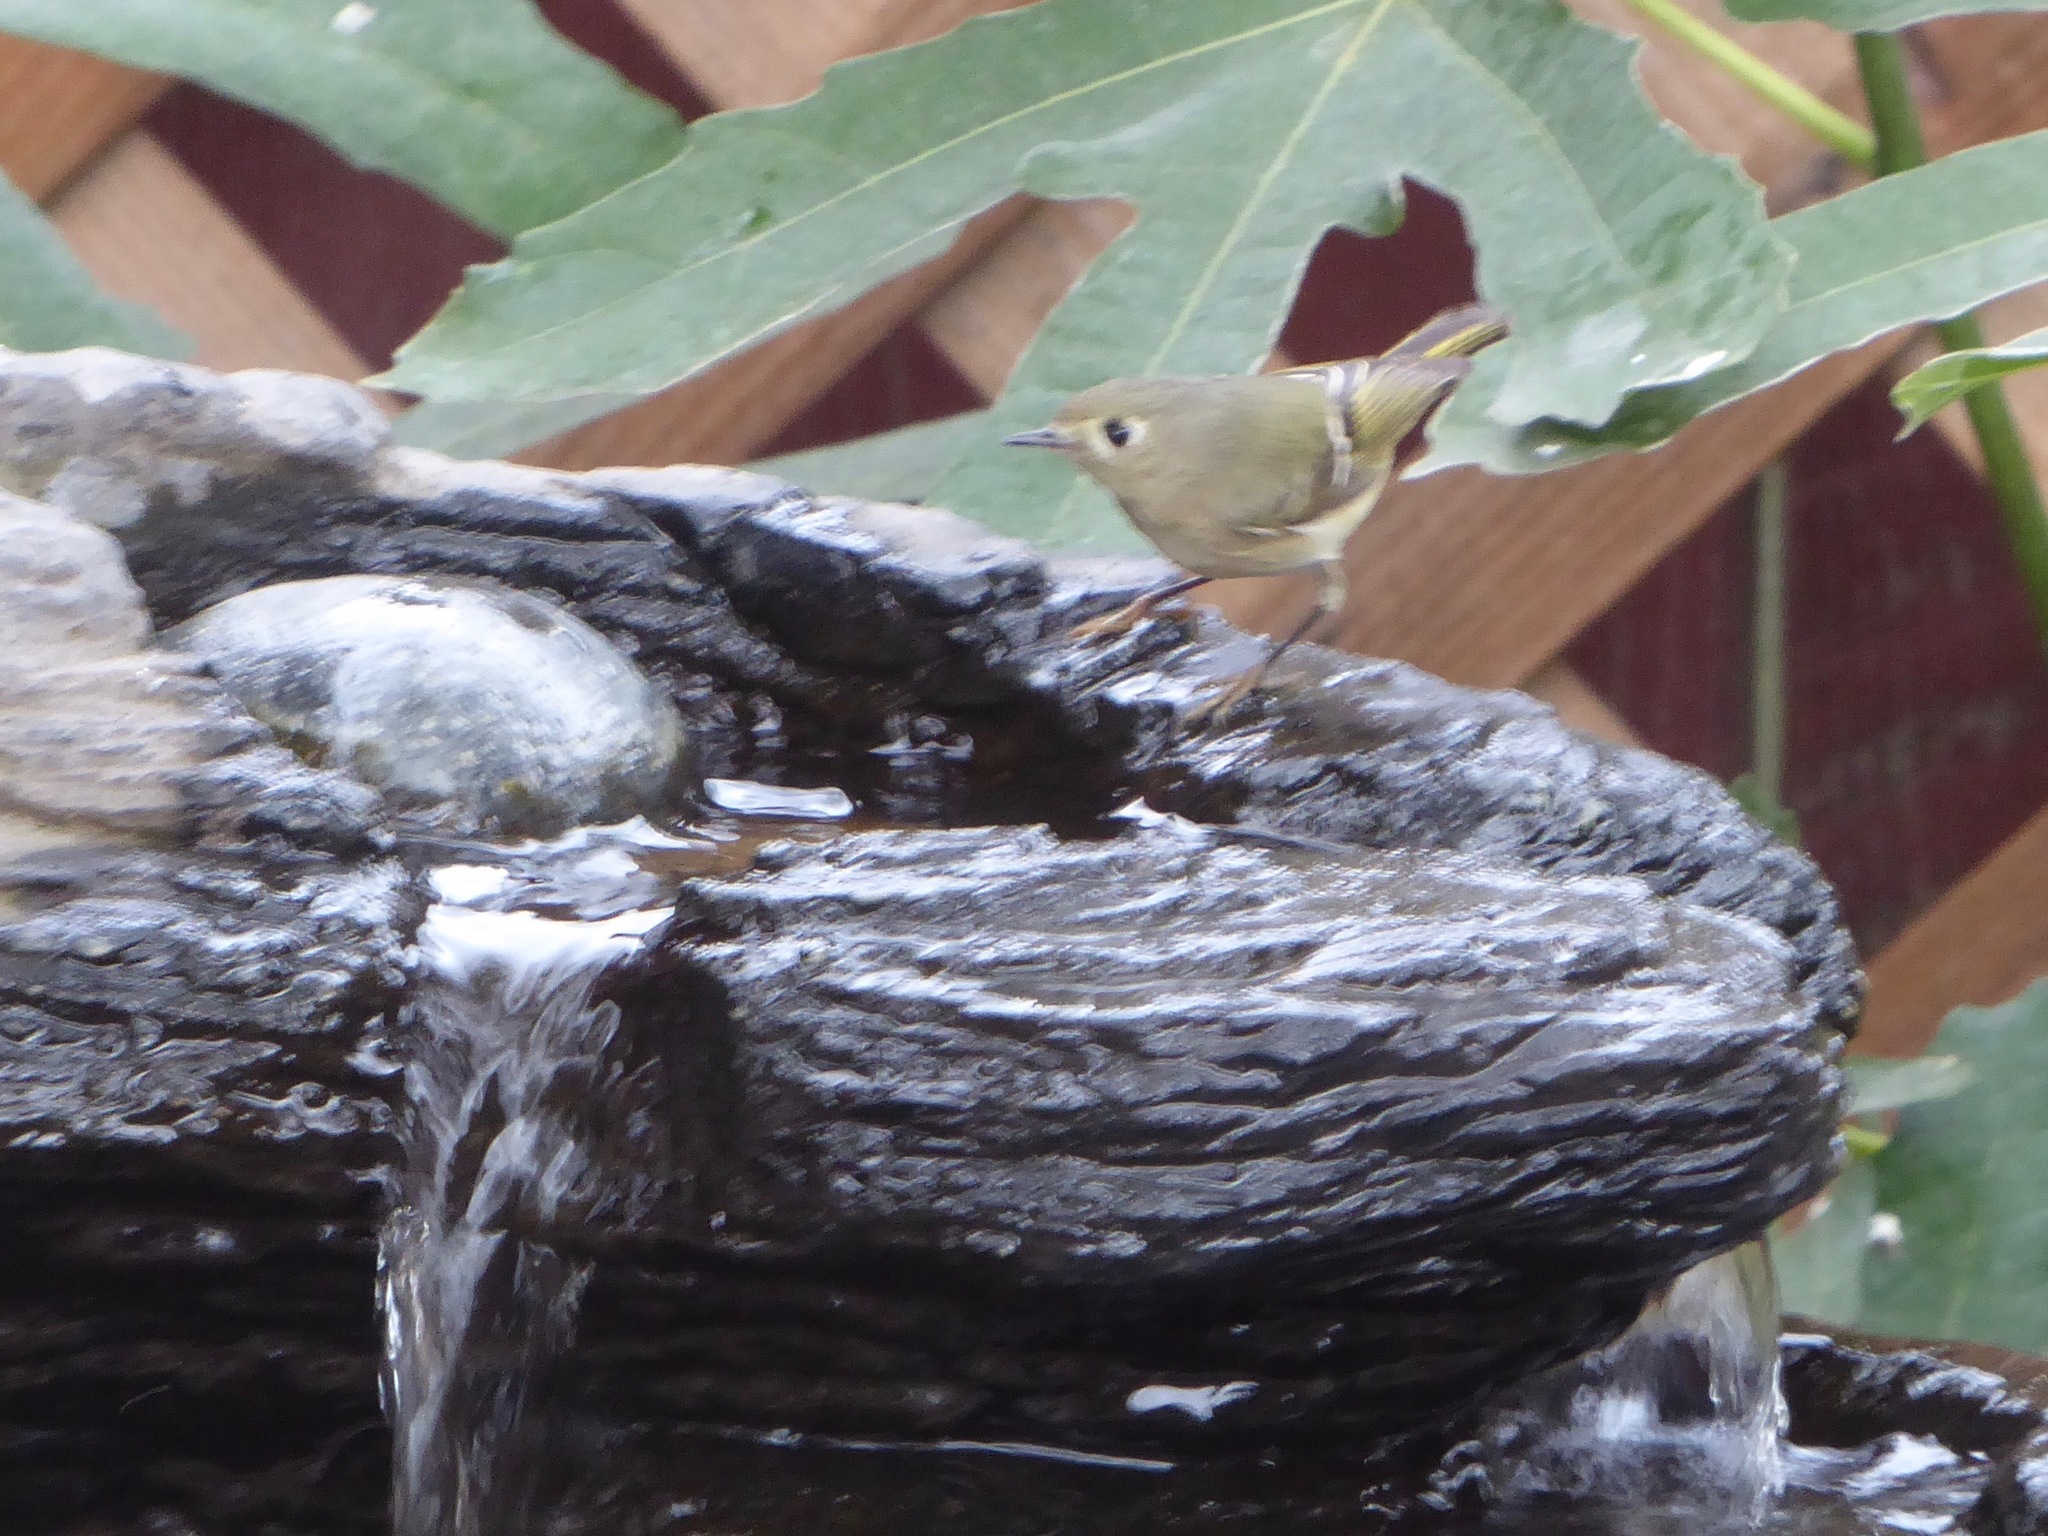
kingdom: Animalia
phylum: Chordata
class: Aves
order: Passeriformes
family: Regulidae
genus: Regulus
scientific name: Regulus calendula
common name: Ruby-crowned kinglet
